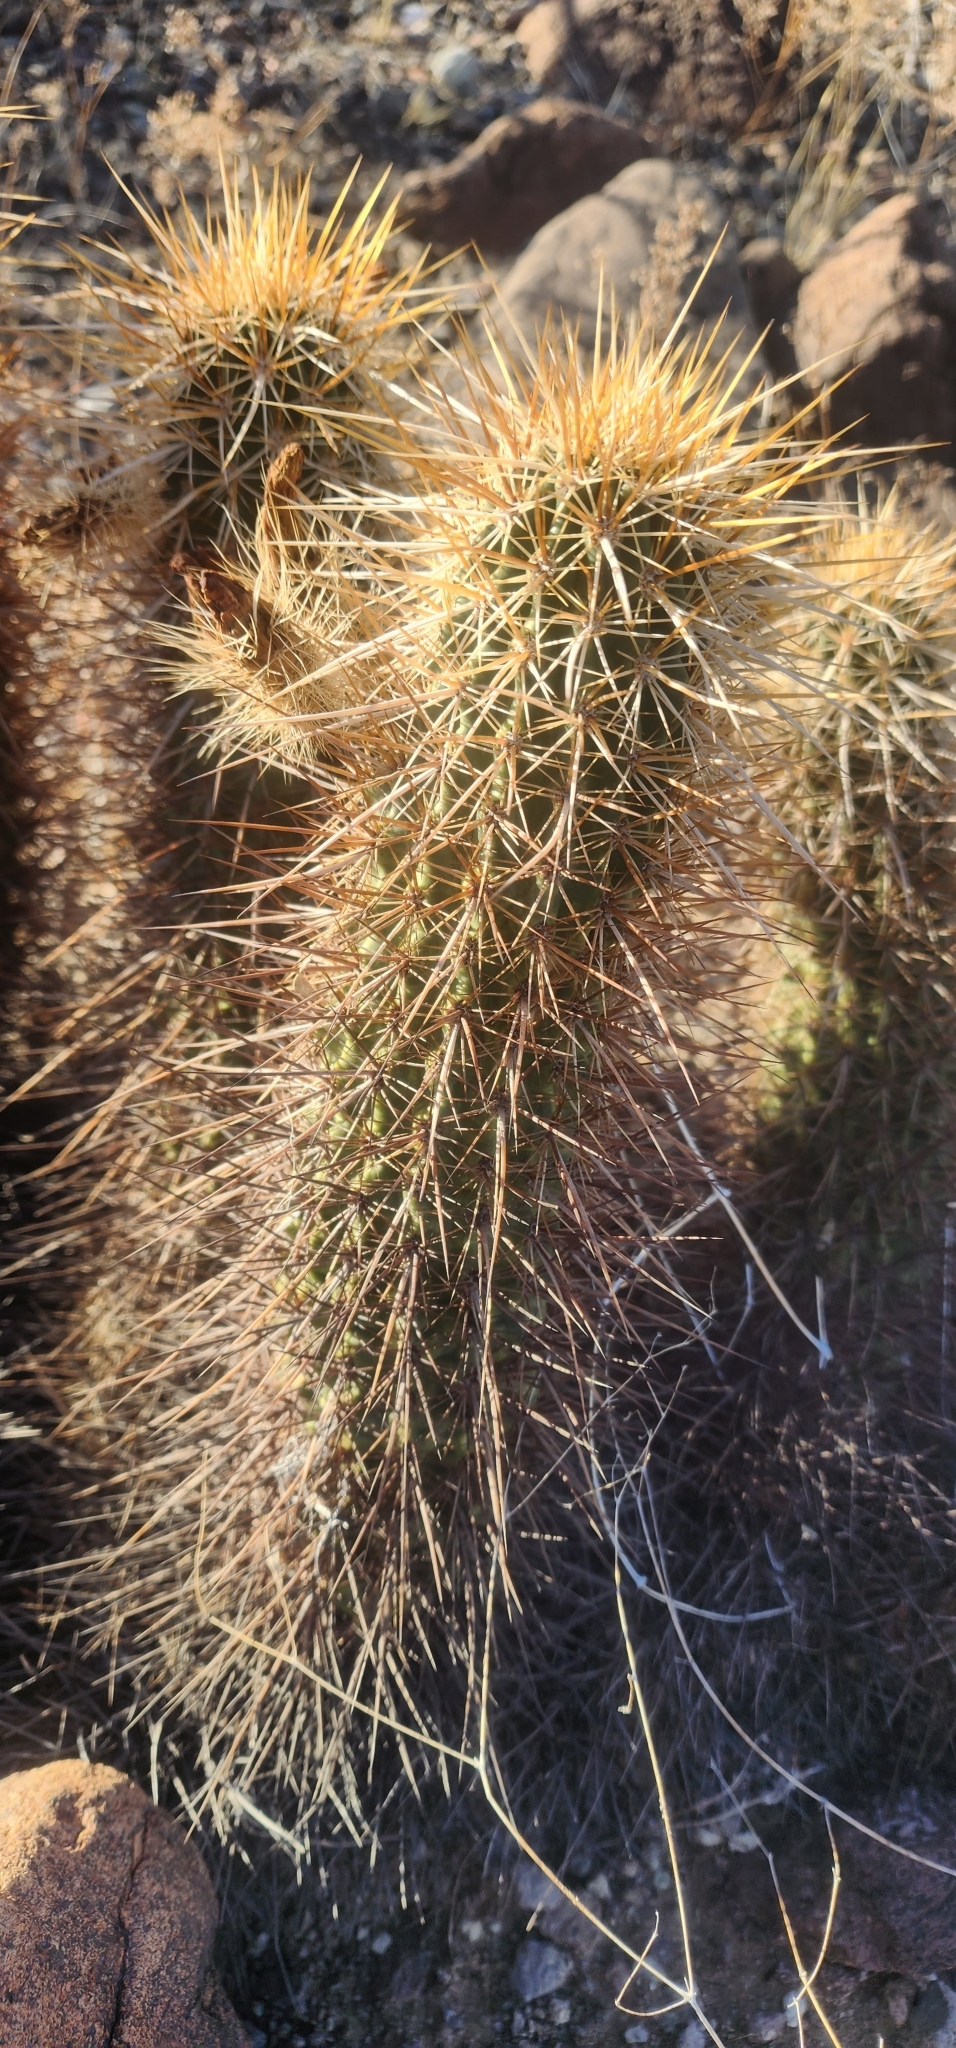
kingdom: Plantae
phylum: Tracheophyta
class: Magnoliopsida
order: Caryophyllales
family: Cactaceae
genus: Echinocereus
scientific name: Echinocereus engelmannii
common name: Engelmann's hedgehog cactus
